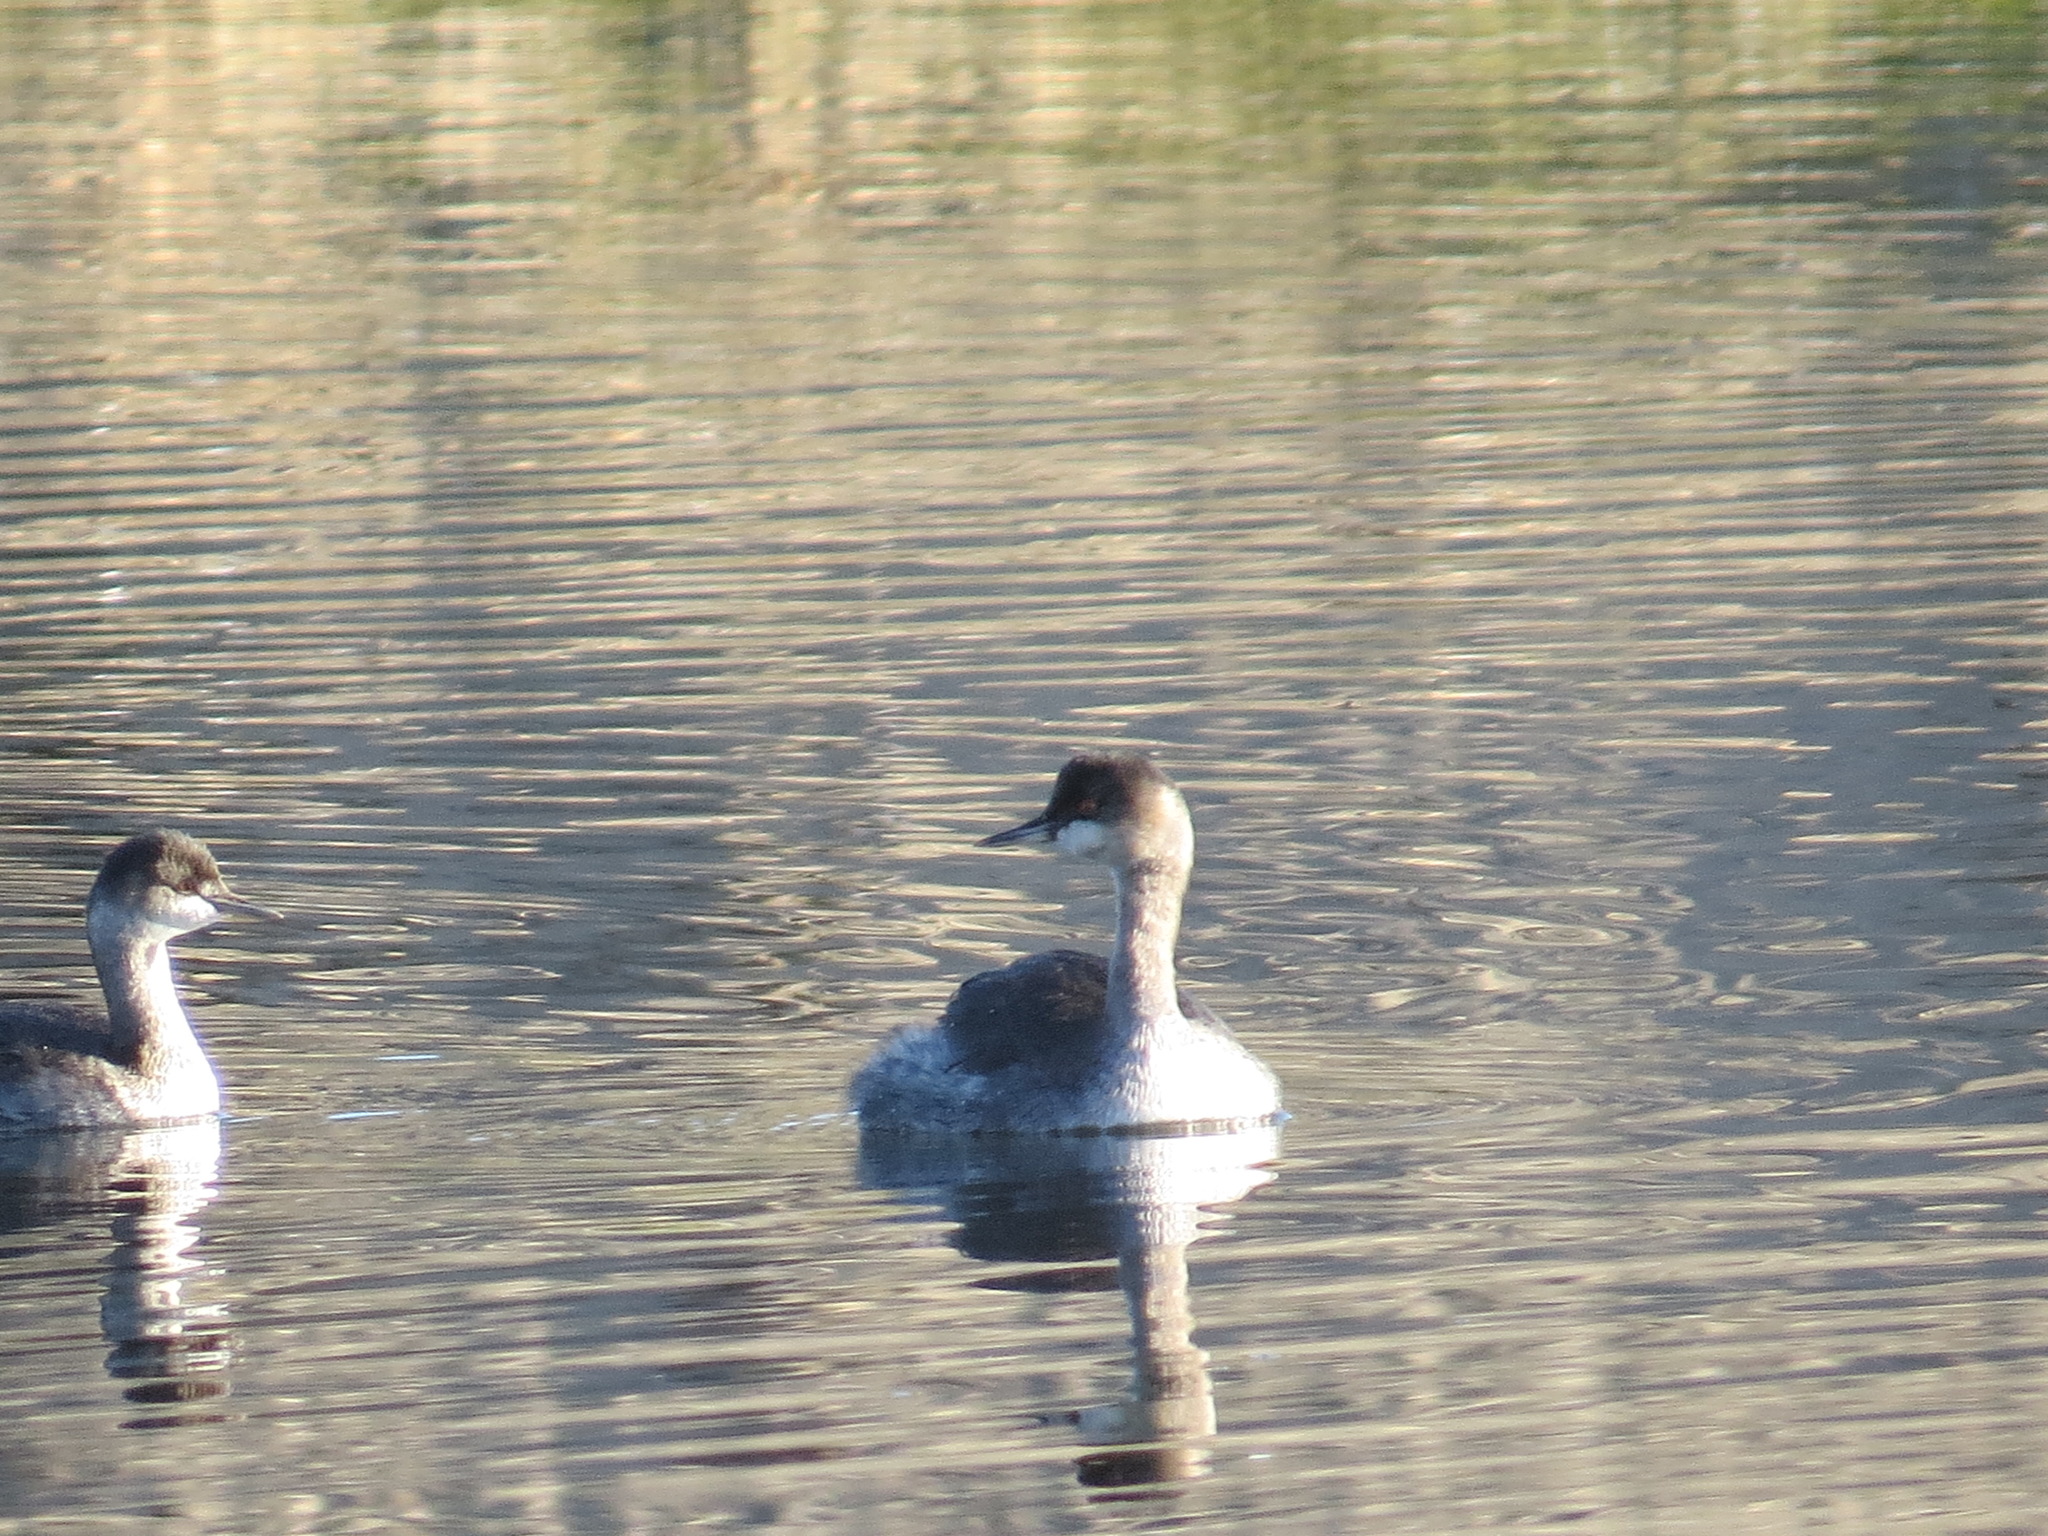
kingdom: Animalia
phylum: Chordata
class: Aves
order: Podicipediformes
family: Podicipedidae
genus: Podiceps
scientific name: Podiceps nigricollis
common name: Black-necked grebe
